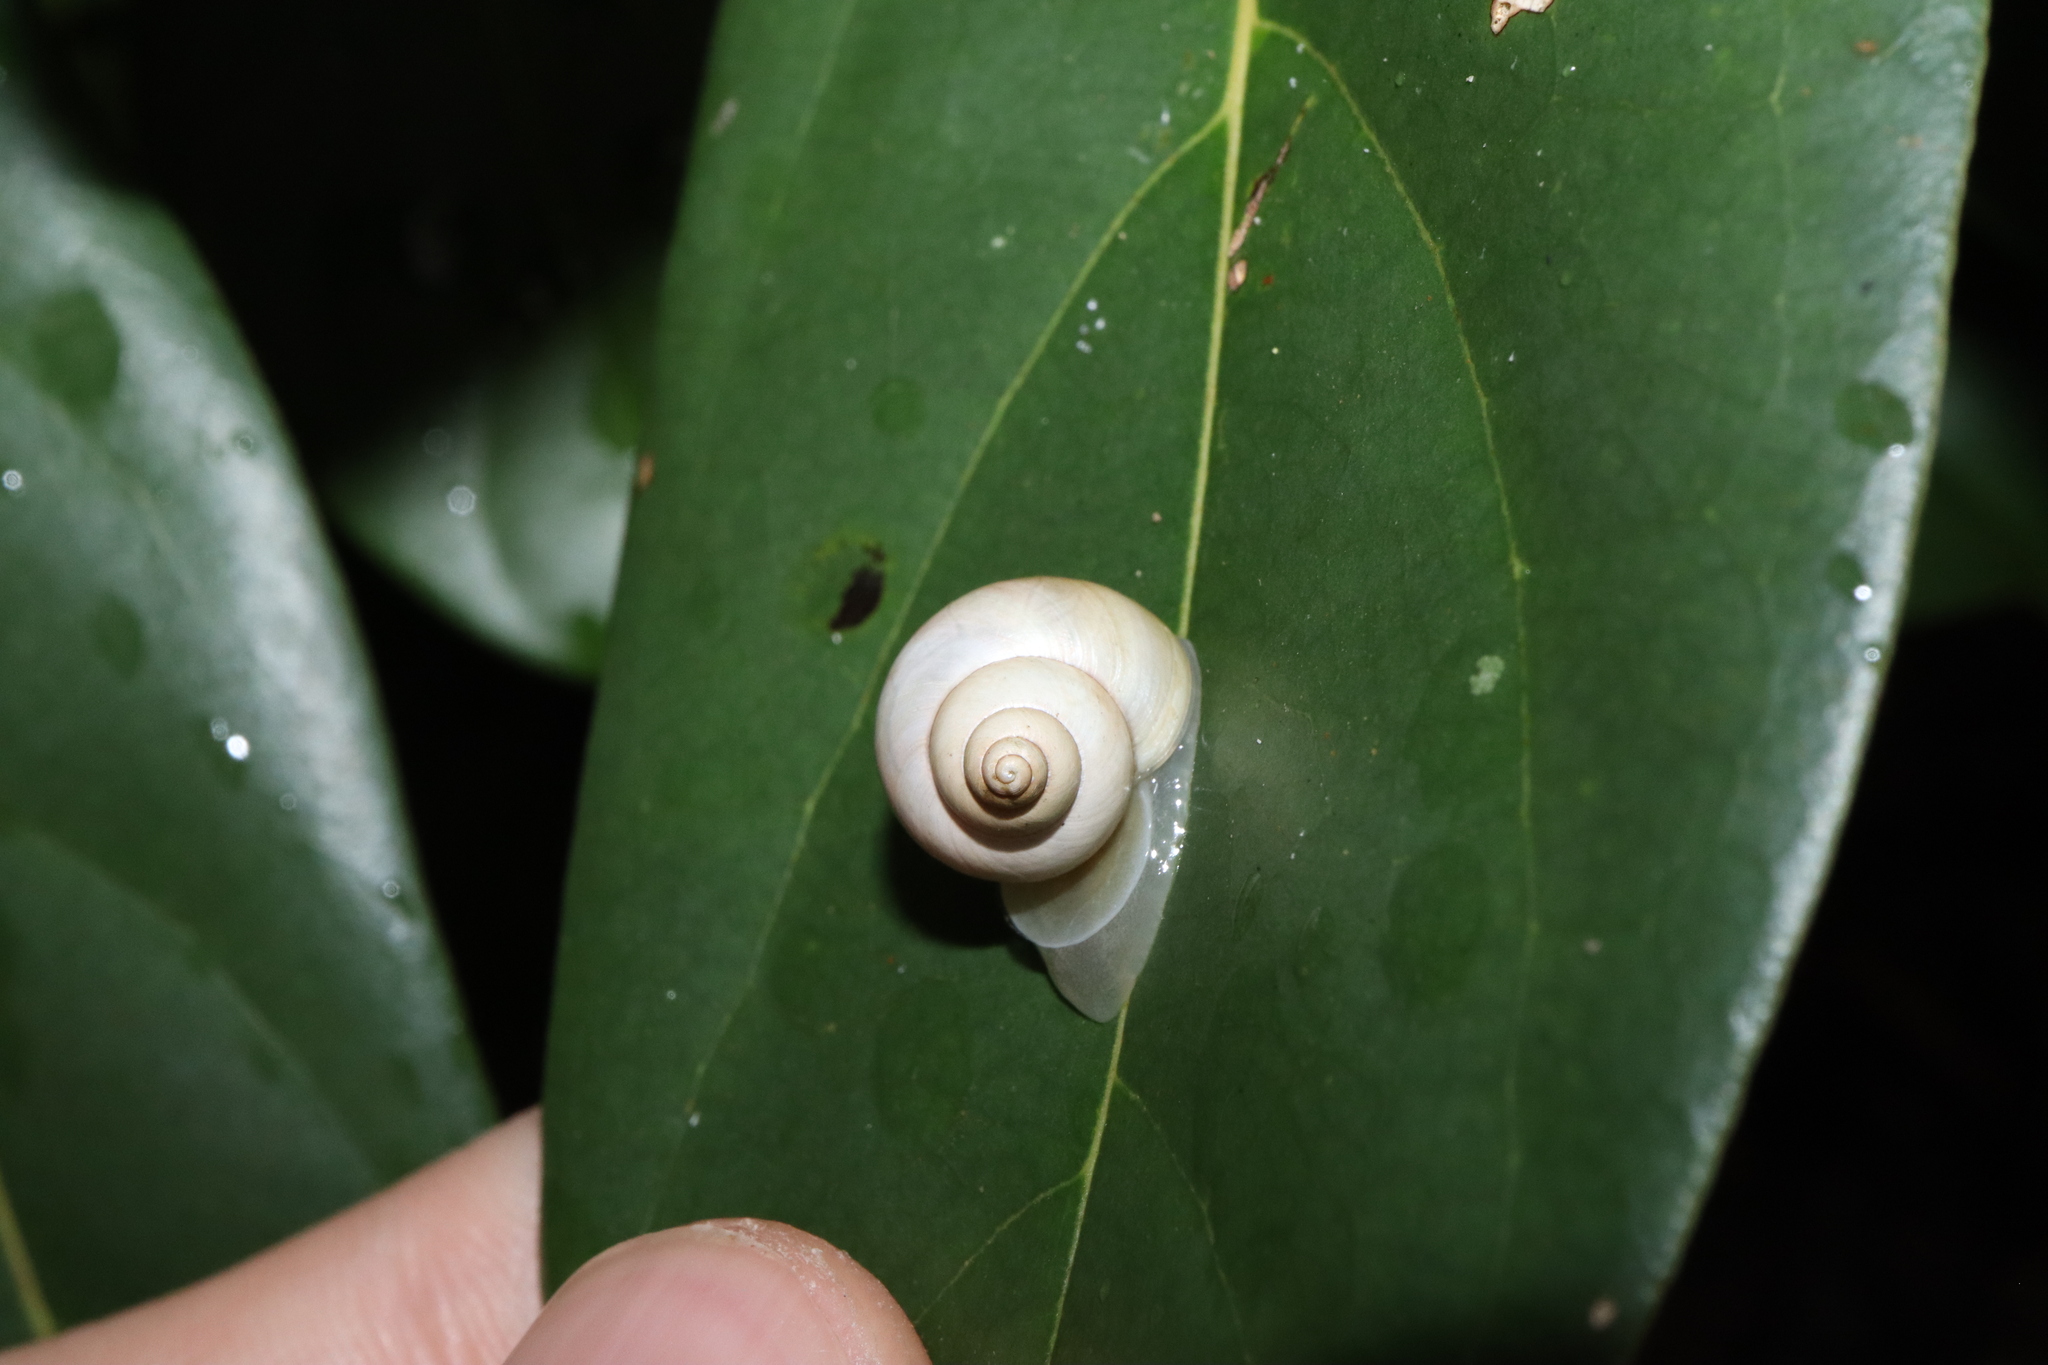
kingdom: Animalia
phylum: Mollusca
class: Gastropoda
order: Architaenioglossa
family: Cyclophoridae
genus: Leptopoma
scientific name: Leptopoma perlucidum
